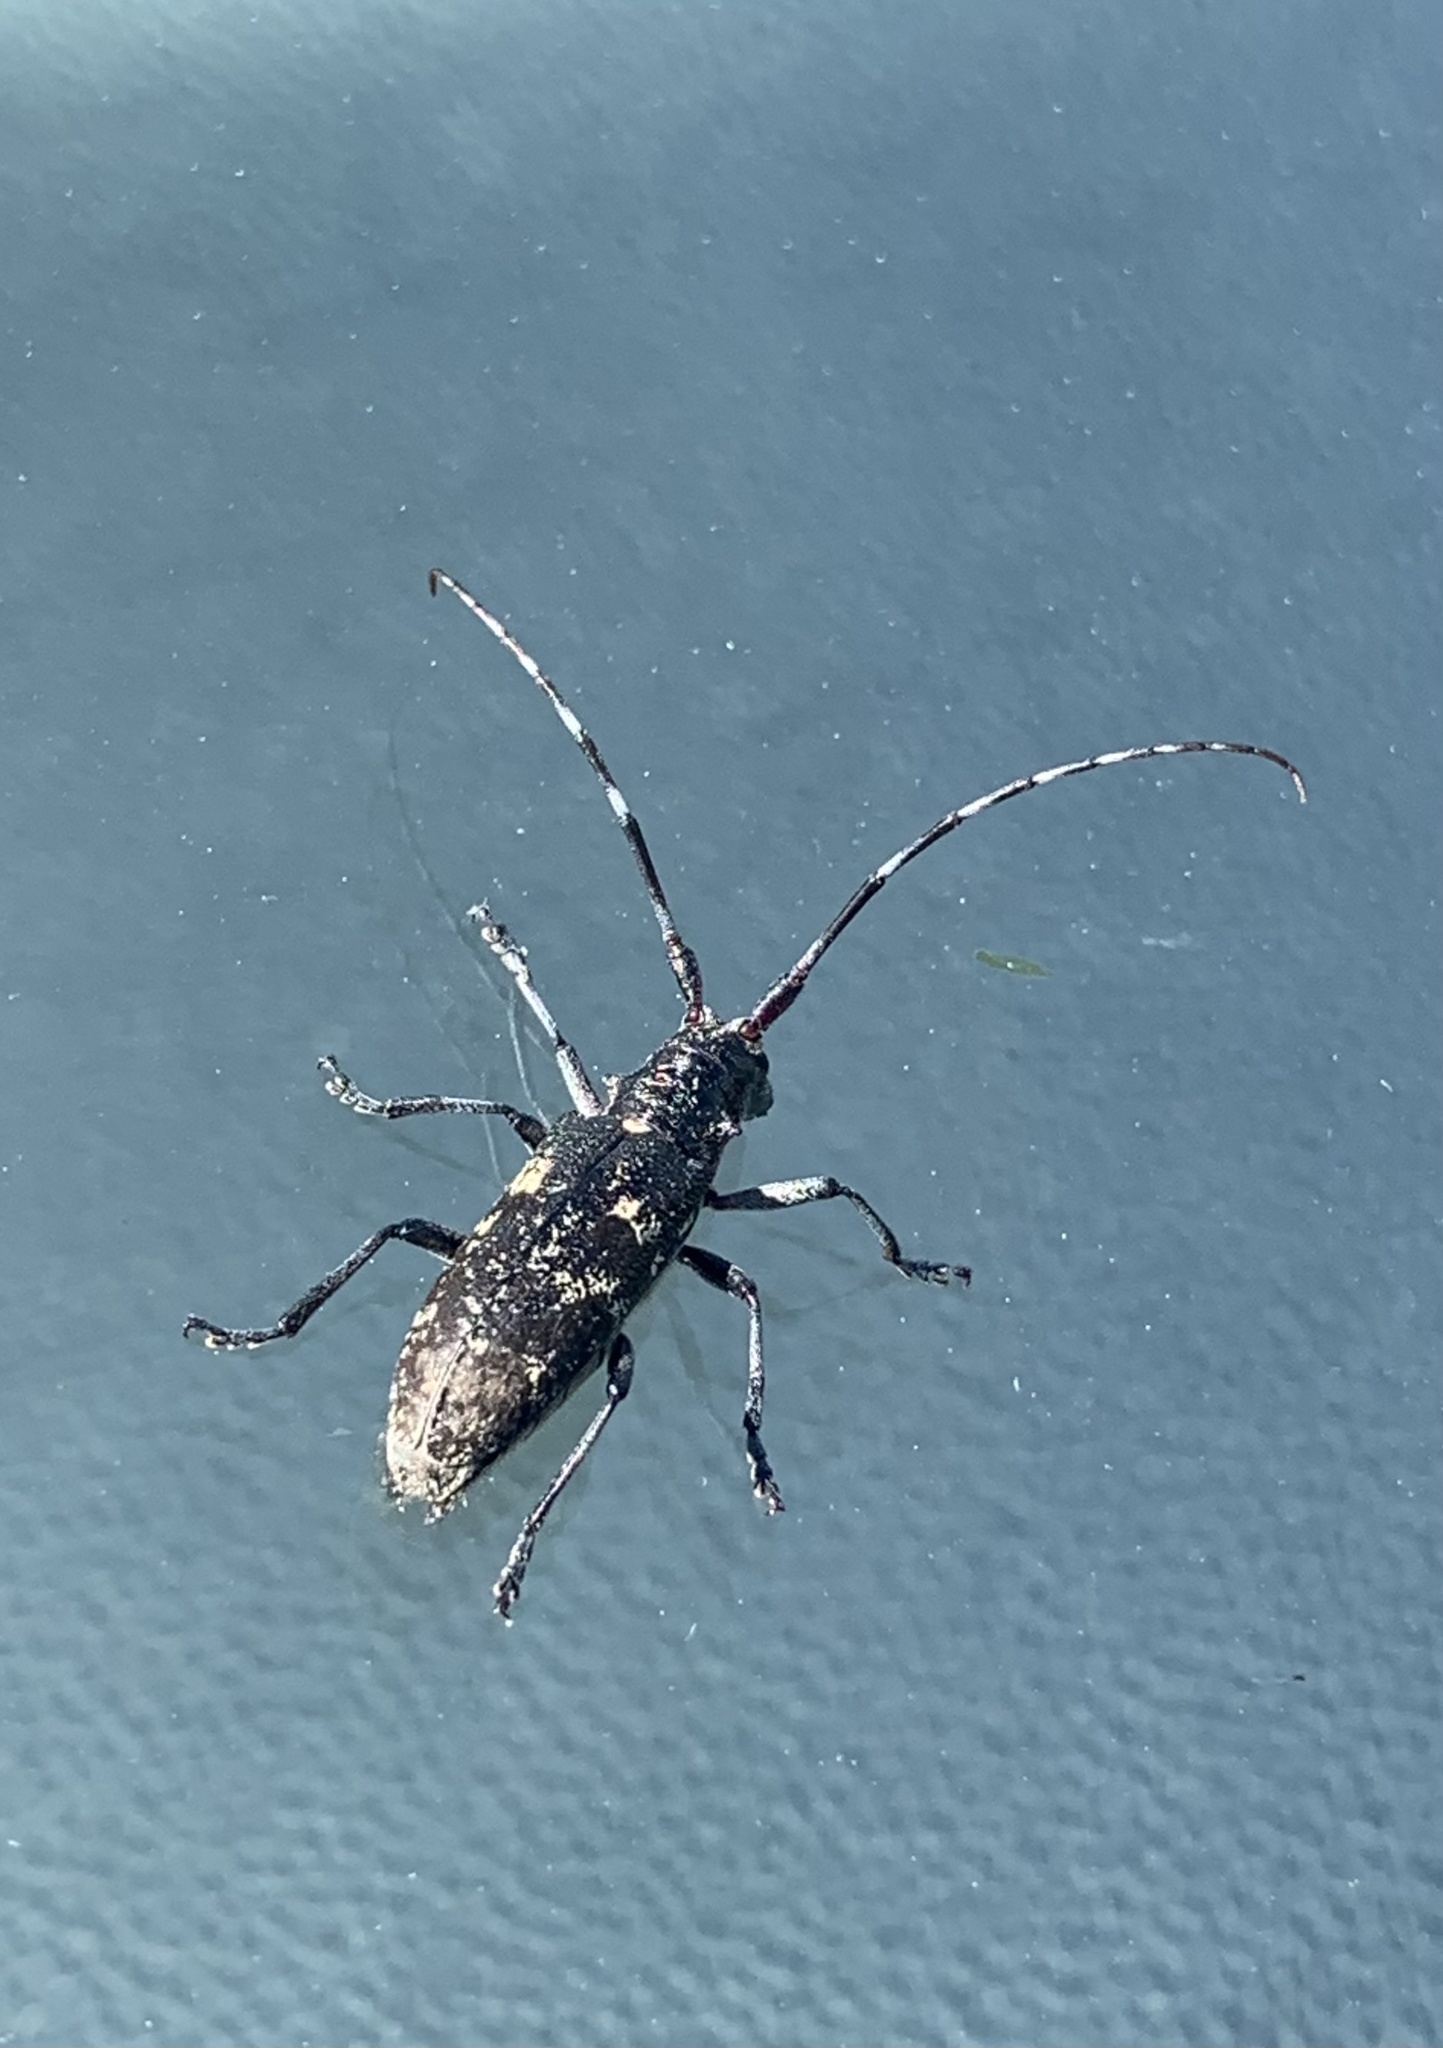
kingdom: Animalia
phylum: Arthropoda
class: Insecta
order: Coleoptera
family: Cerambycidae
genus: Monochamus
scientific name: Monochamus scutellatus
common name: White-spotted sawyer beetle
